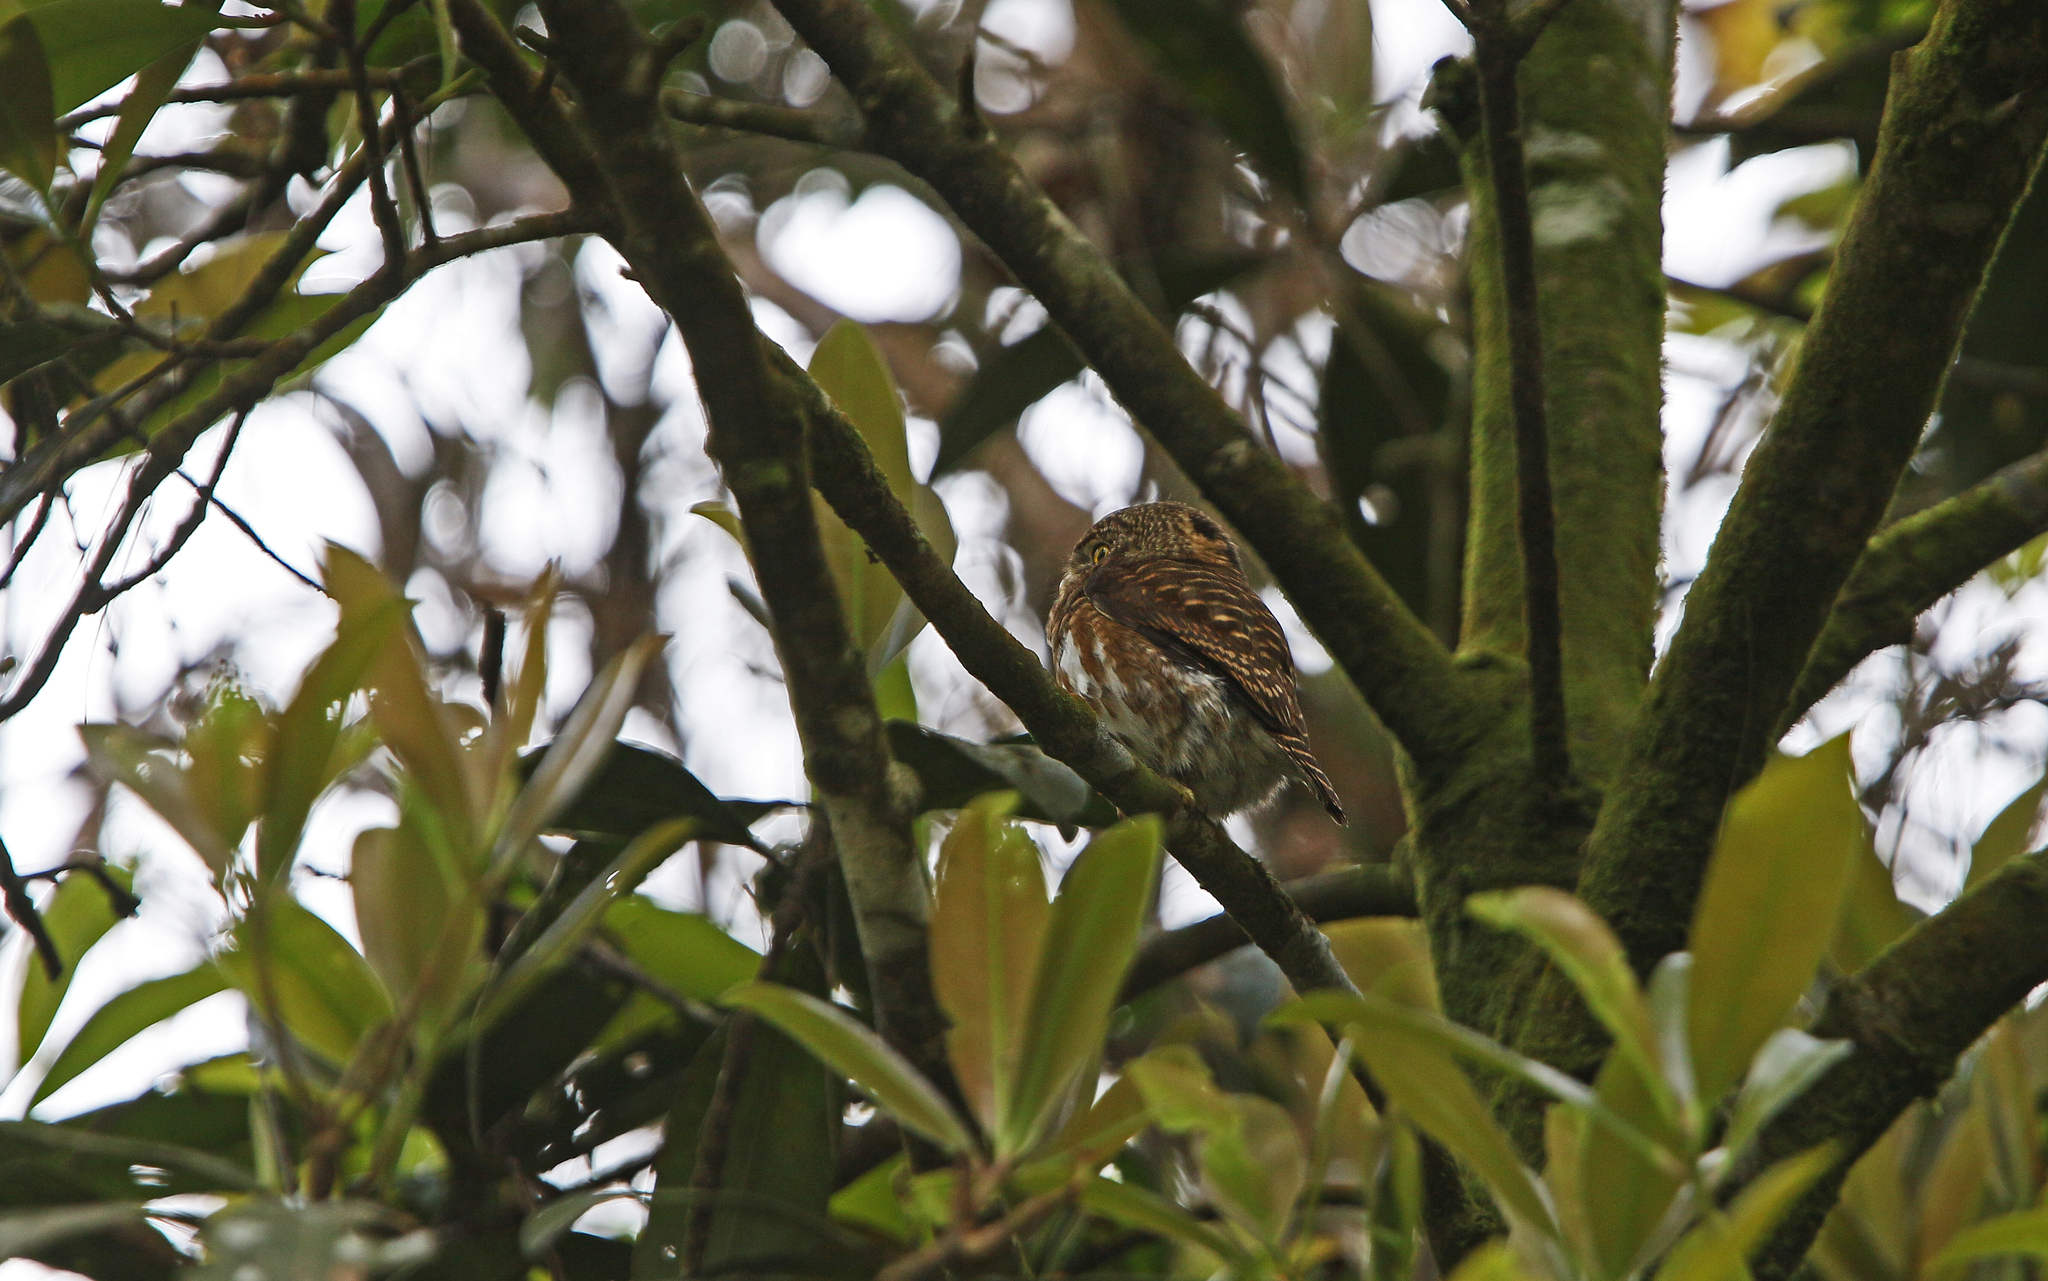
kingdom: Animalia
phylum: Chordata
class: Aves
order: Strigiformes
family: Strigidae
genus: Glaucidium
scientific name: Glaucidium brodiei
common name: Collared owlet
